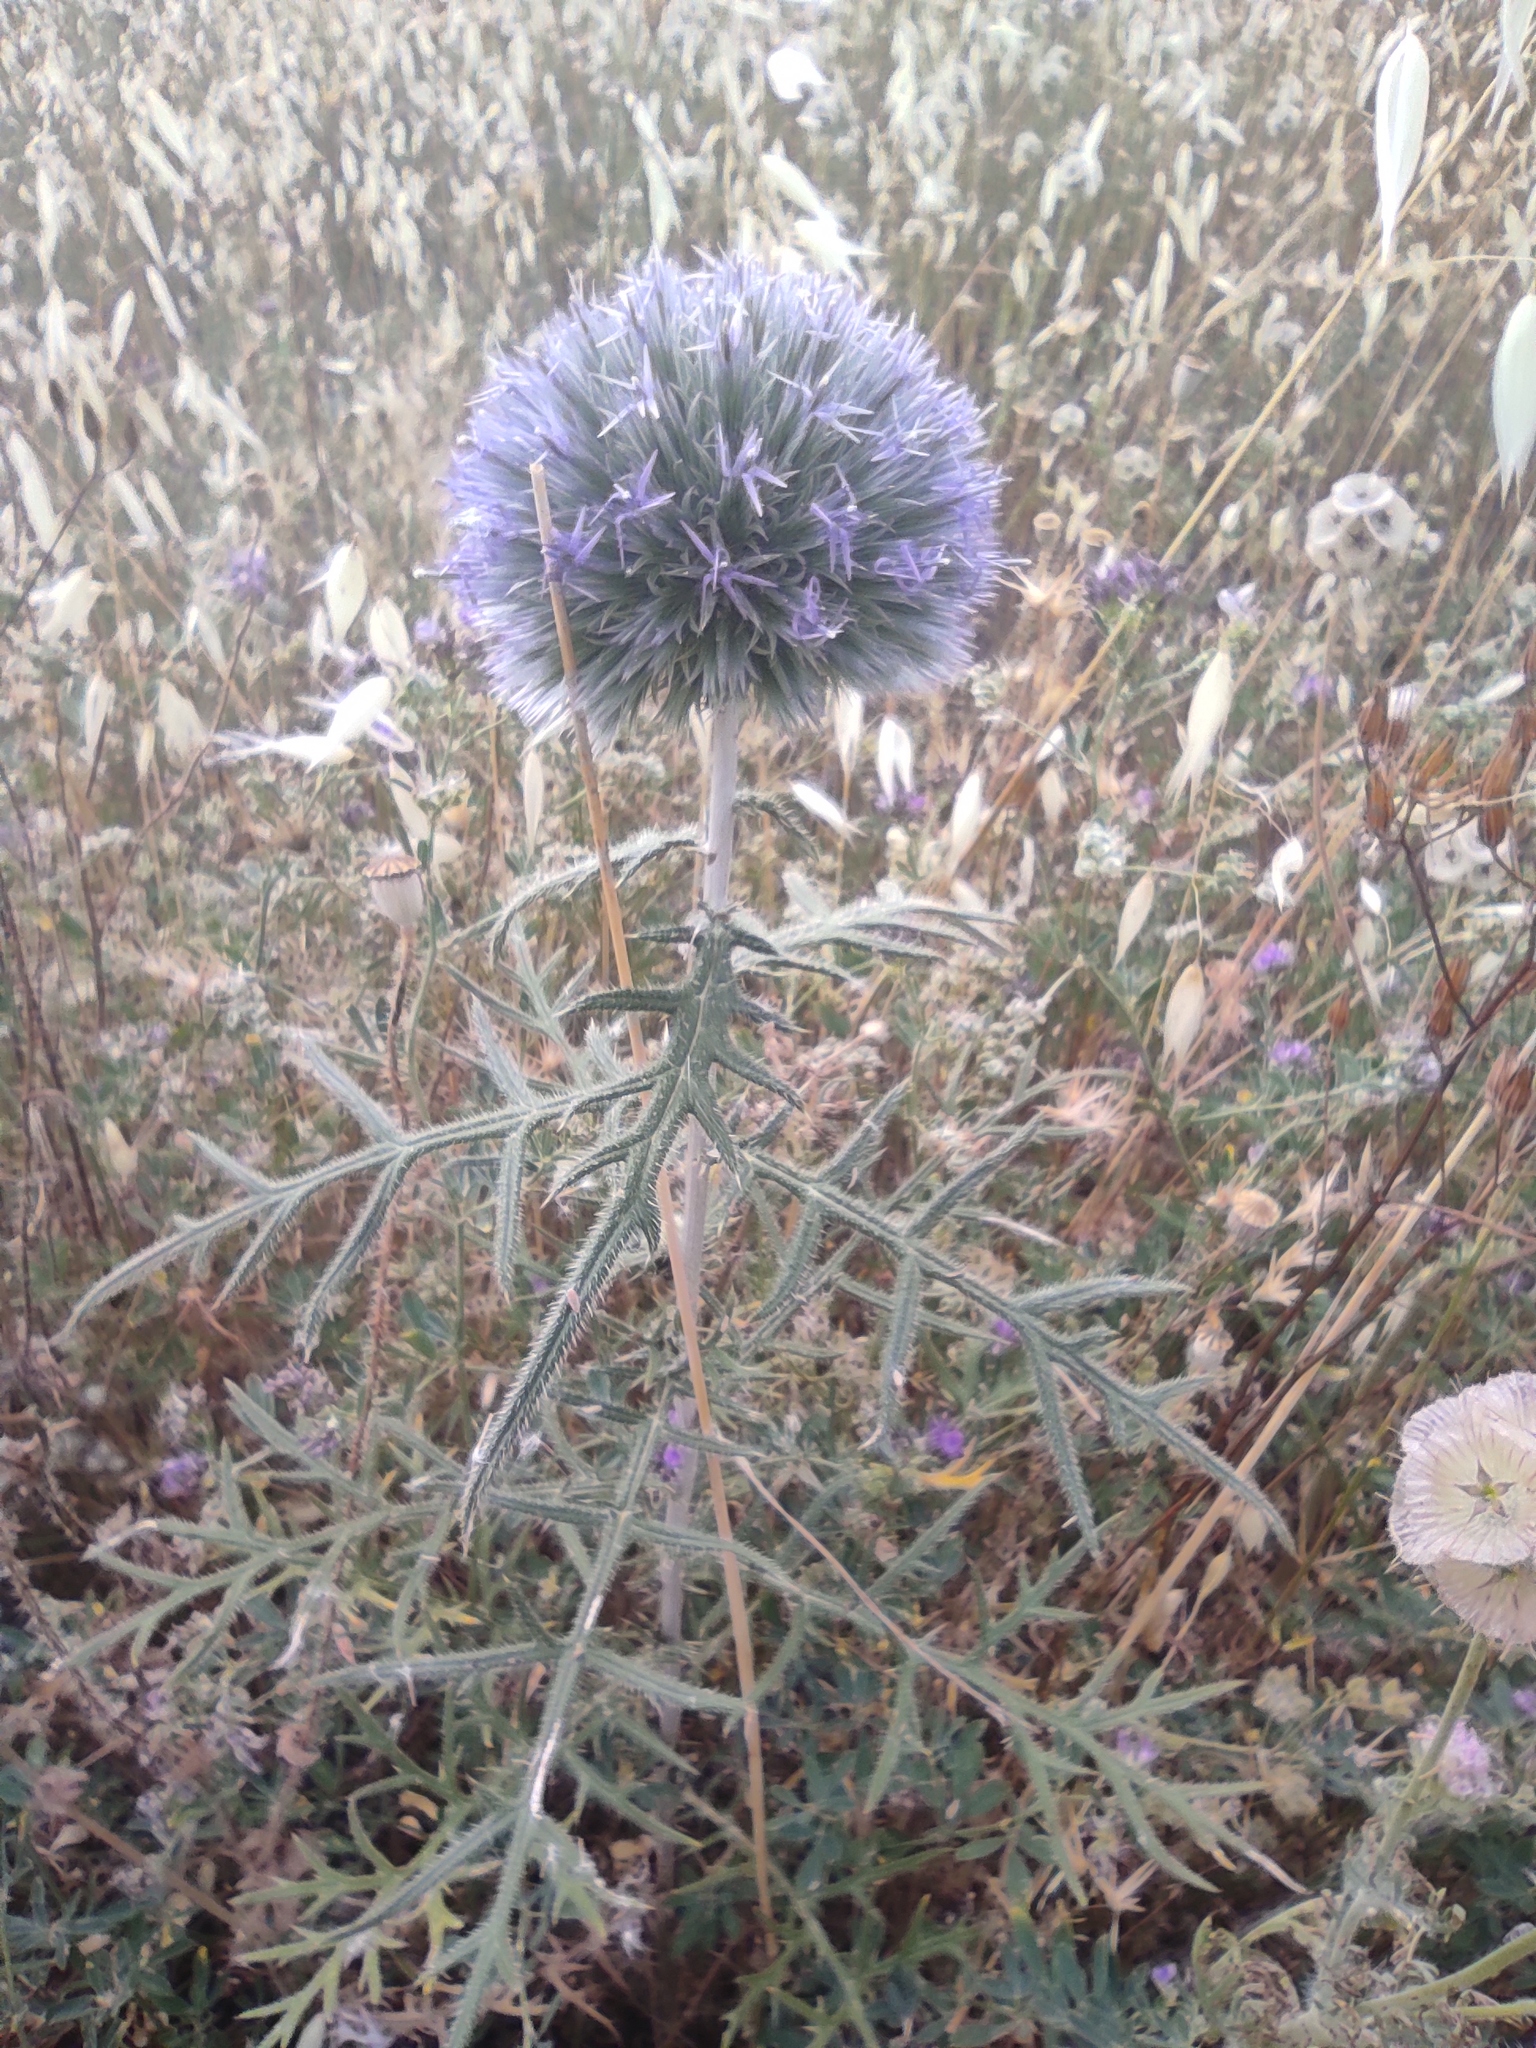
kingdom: Plantae
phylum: Tracheophyta
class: Magnoliopsida
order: Asterales
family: Asteraceae
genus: Echinops
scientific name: Echinops strigosus
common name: Rough-leaf globe thistle
